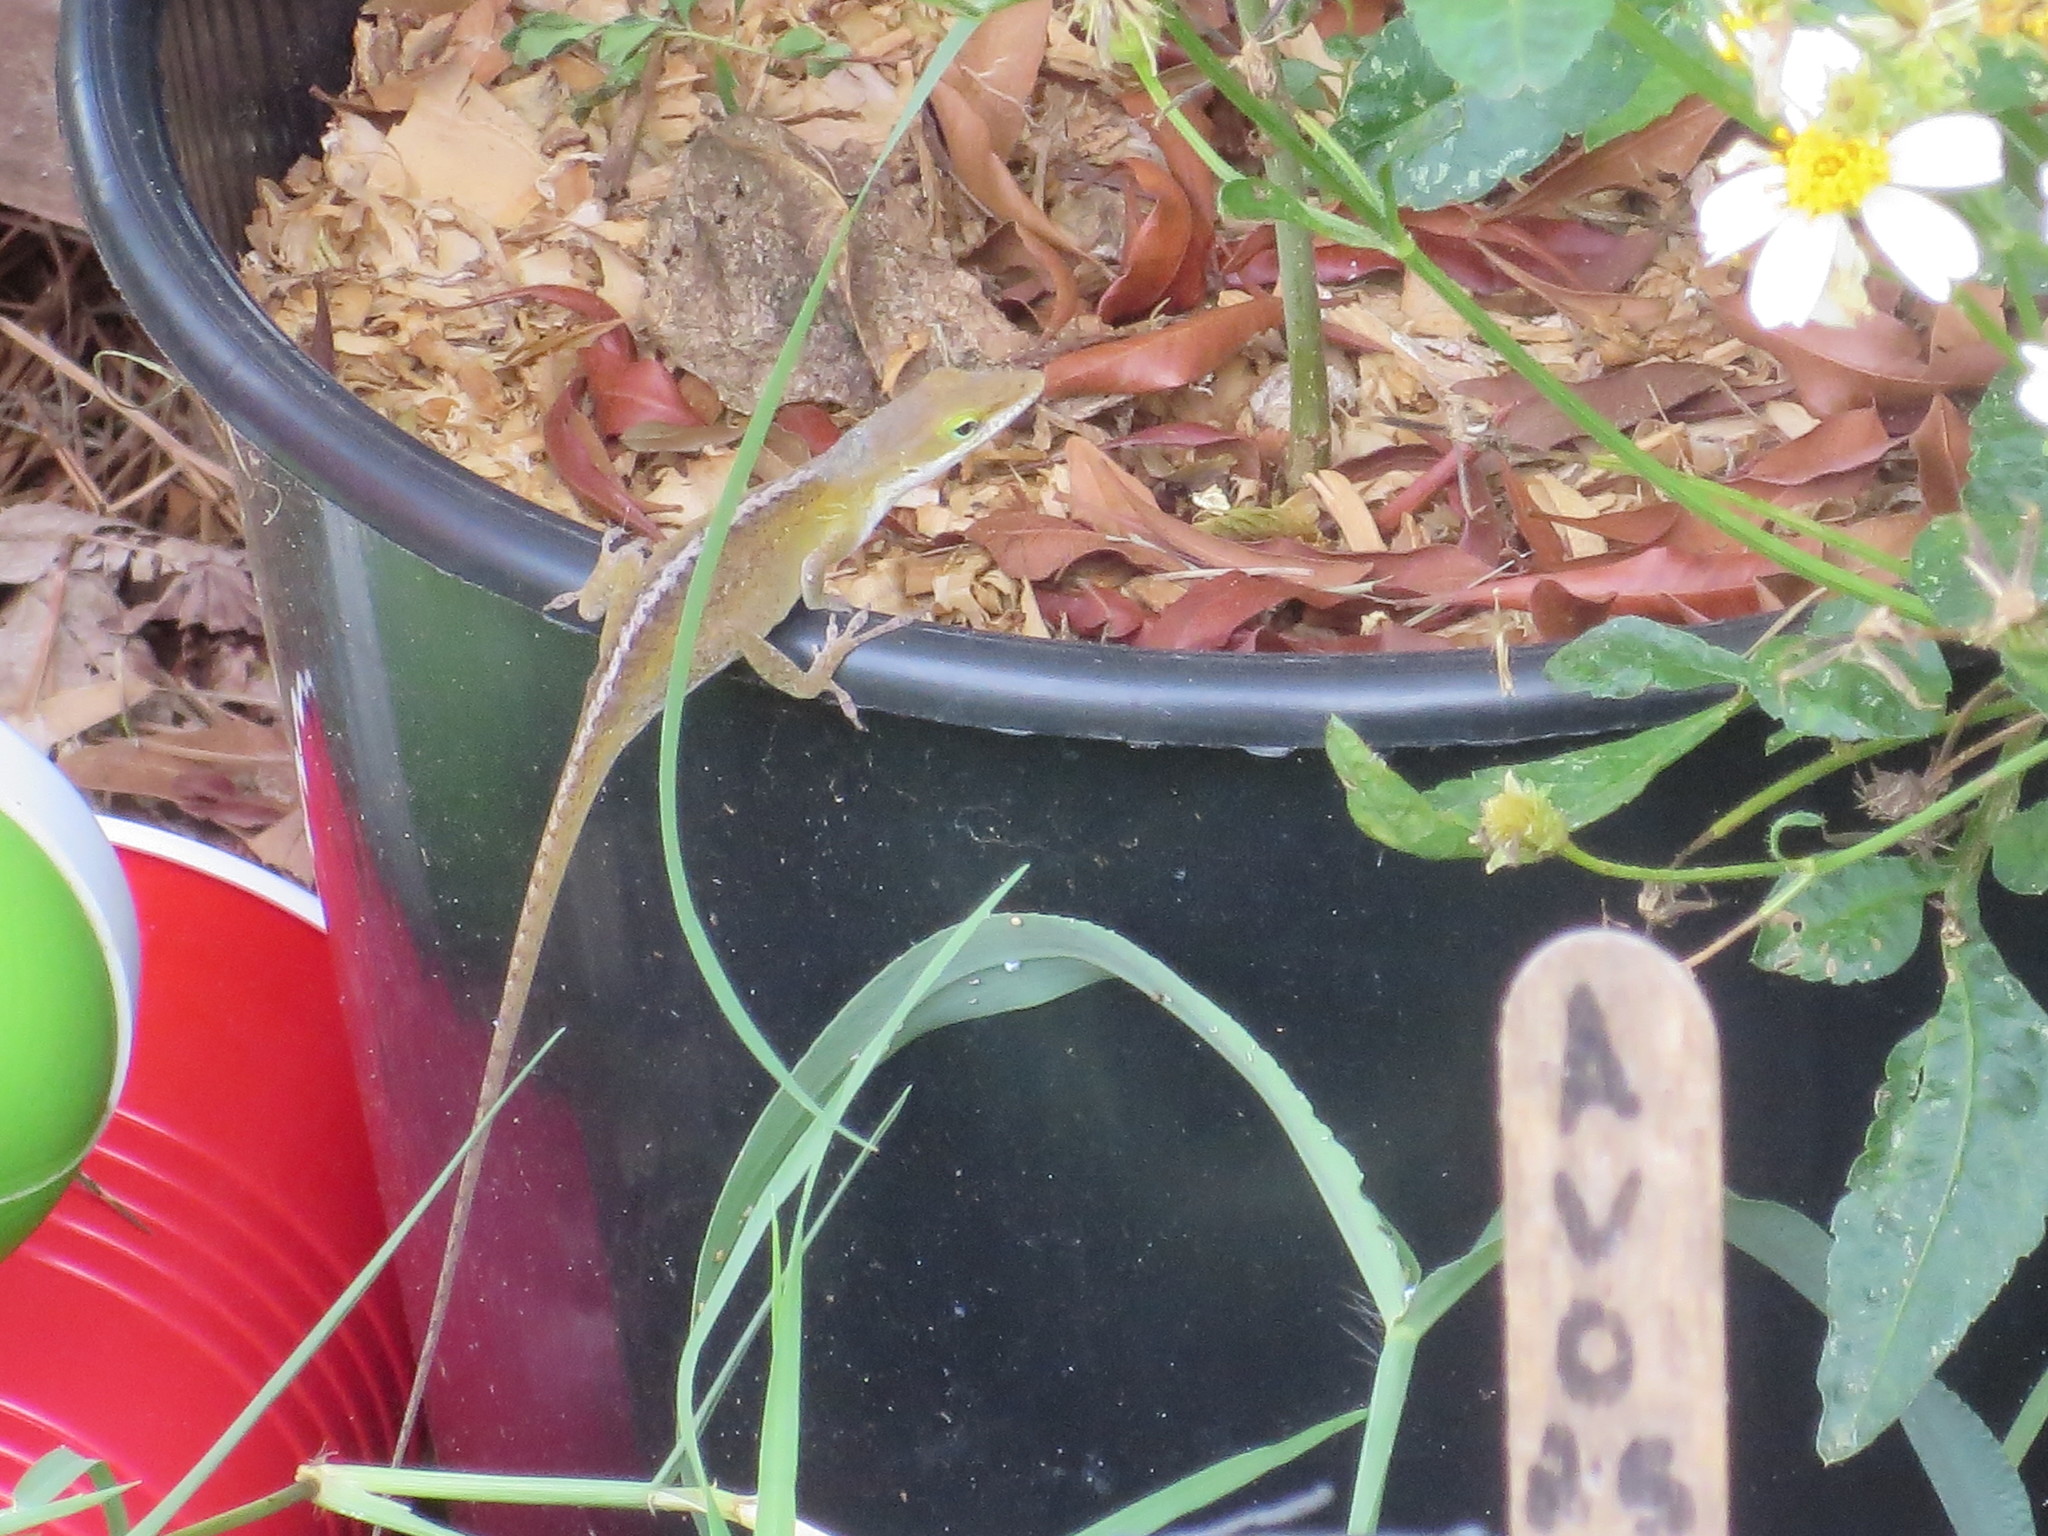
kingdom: Animalia
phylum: Chordata
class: Squamata
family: Dactyloidae
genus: Anolis
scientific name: Anolis carolinensis
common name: Green anole
